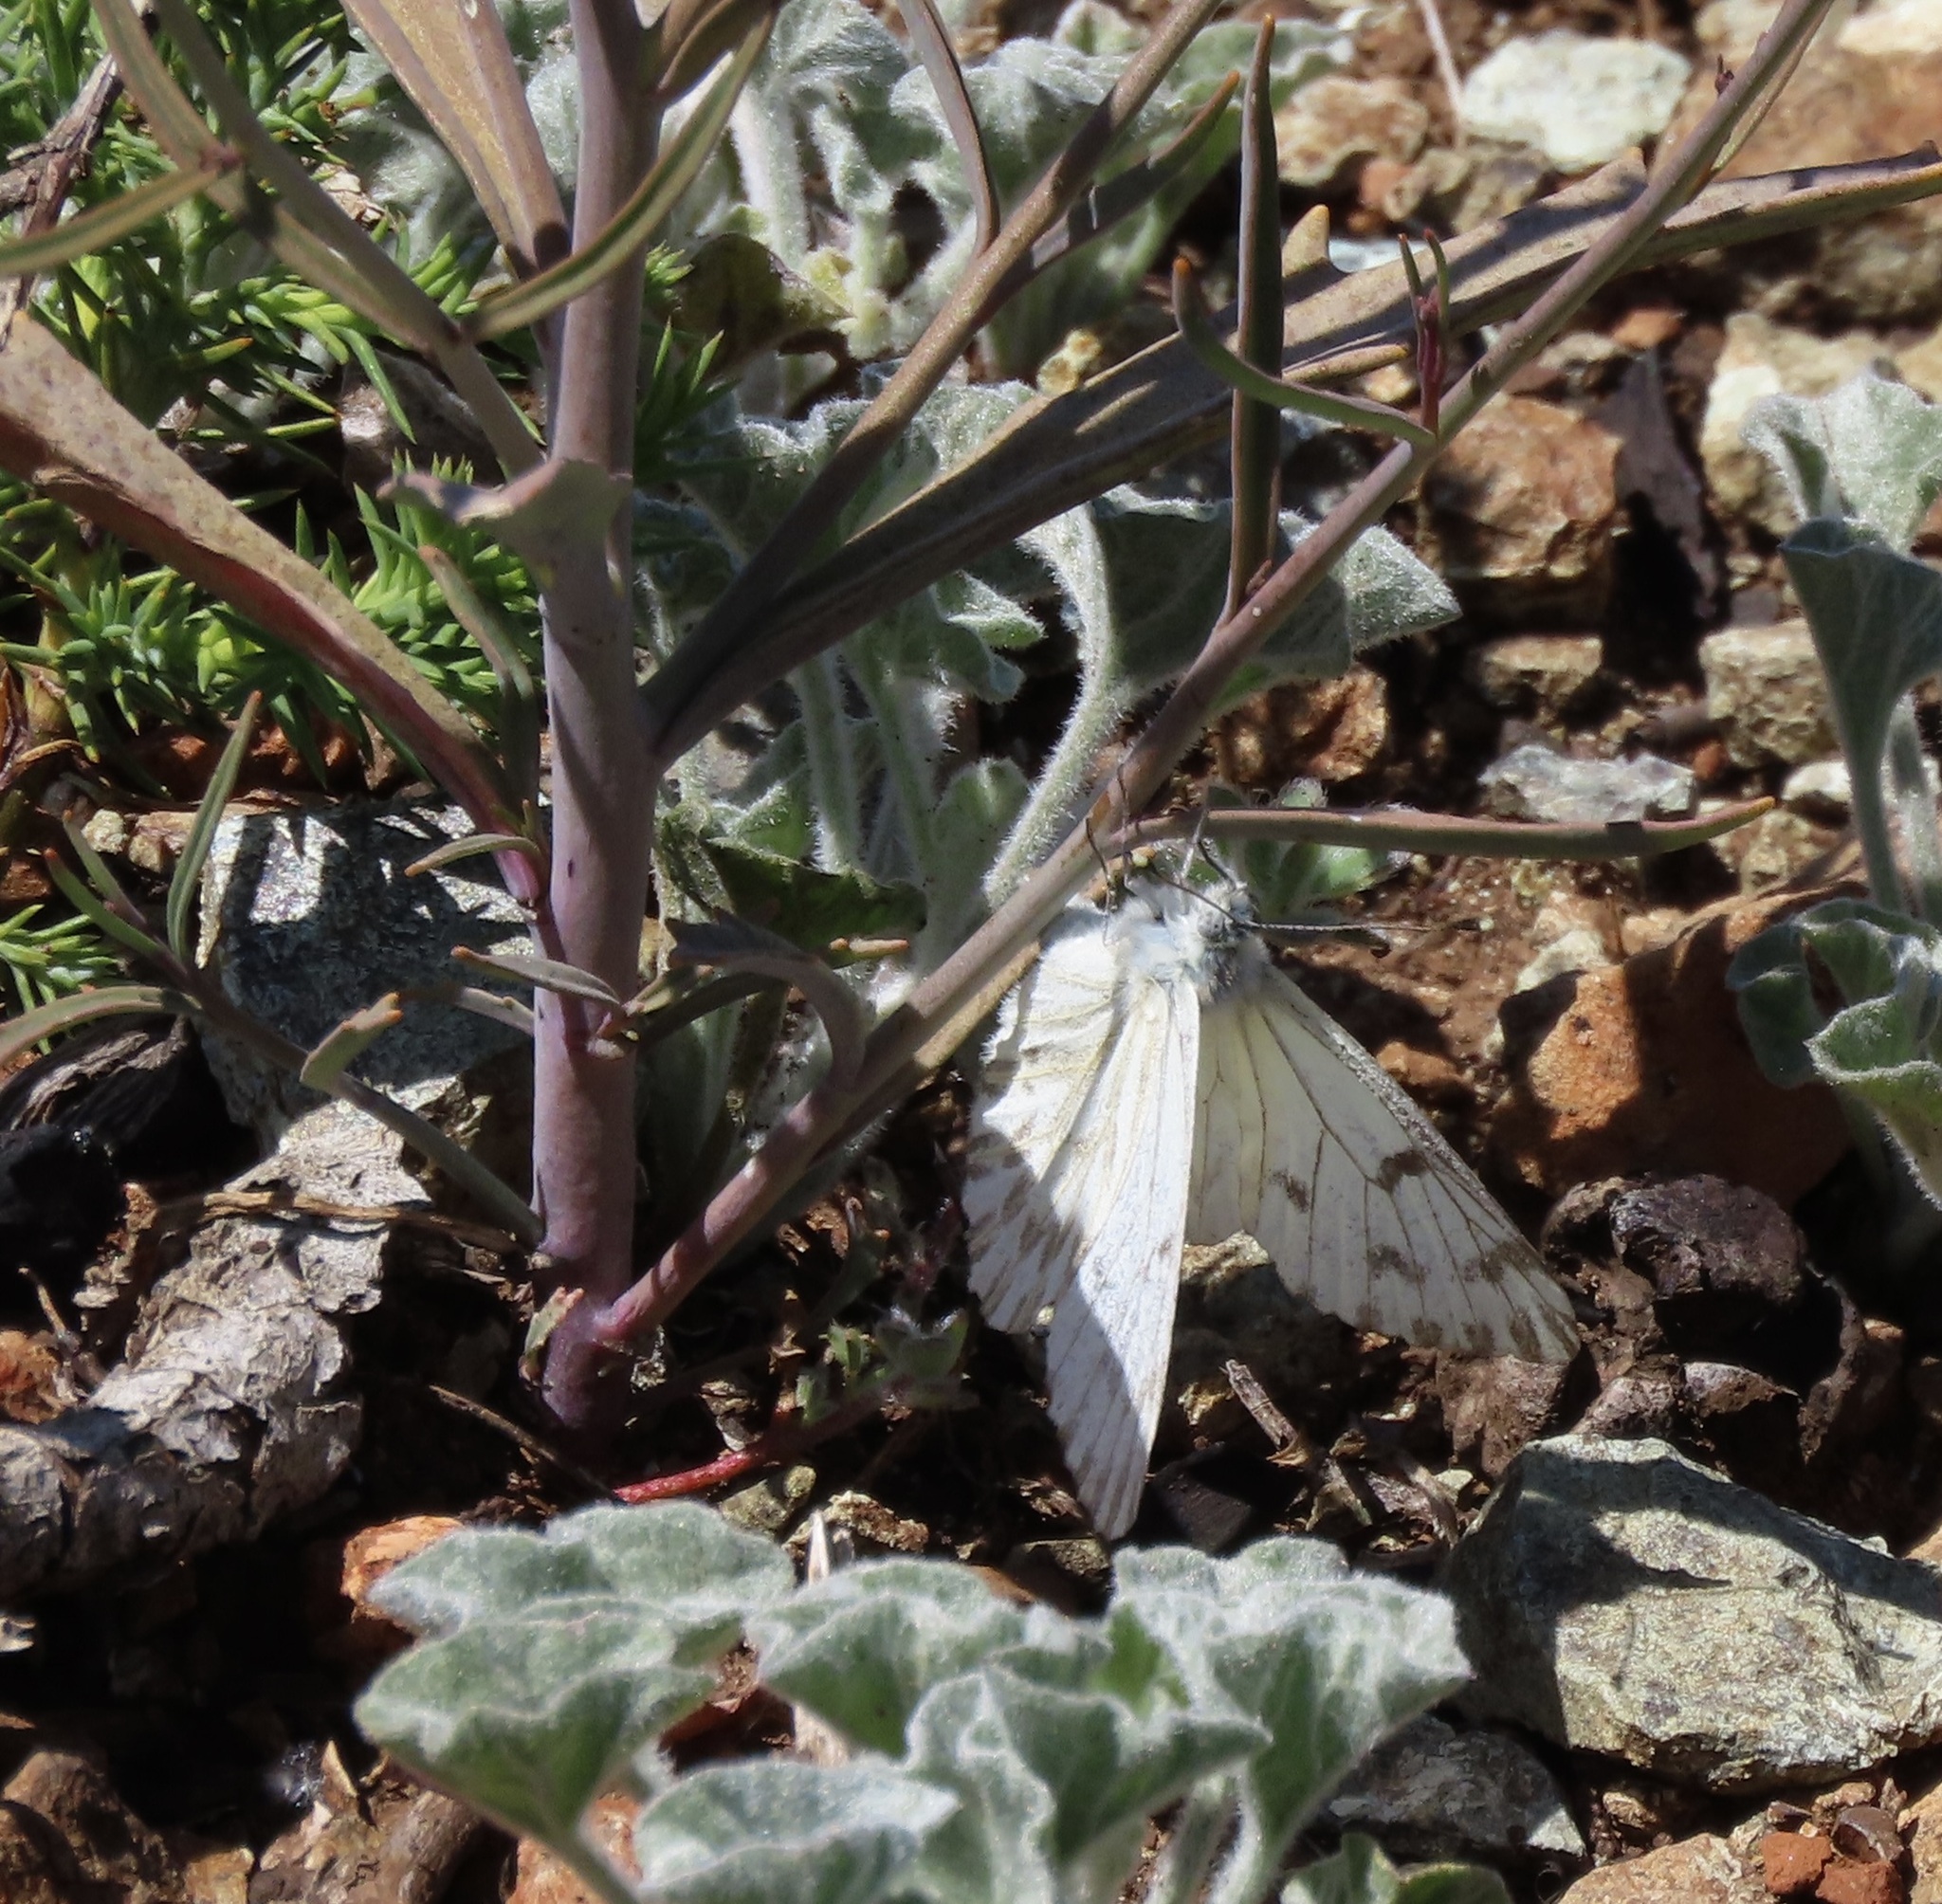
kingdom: Animalia
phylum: Arthropoda
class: Insecta
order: Lepidoptera
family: Pieridae
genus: Pontia
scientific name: Pontia sisymbrii
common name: California white
